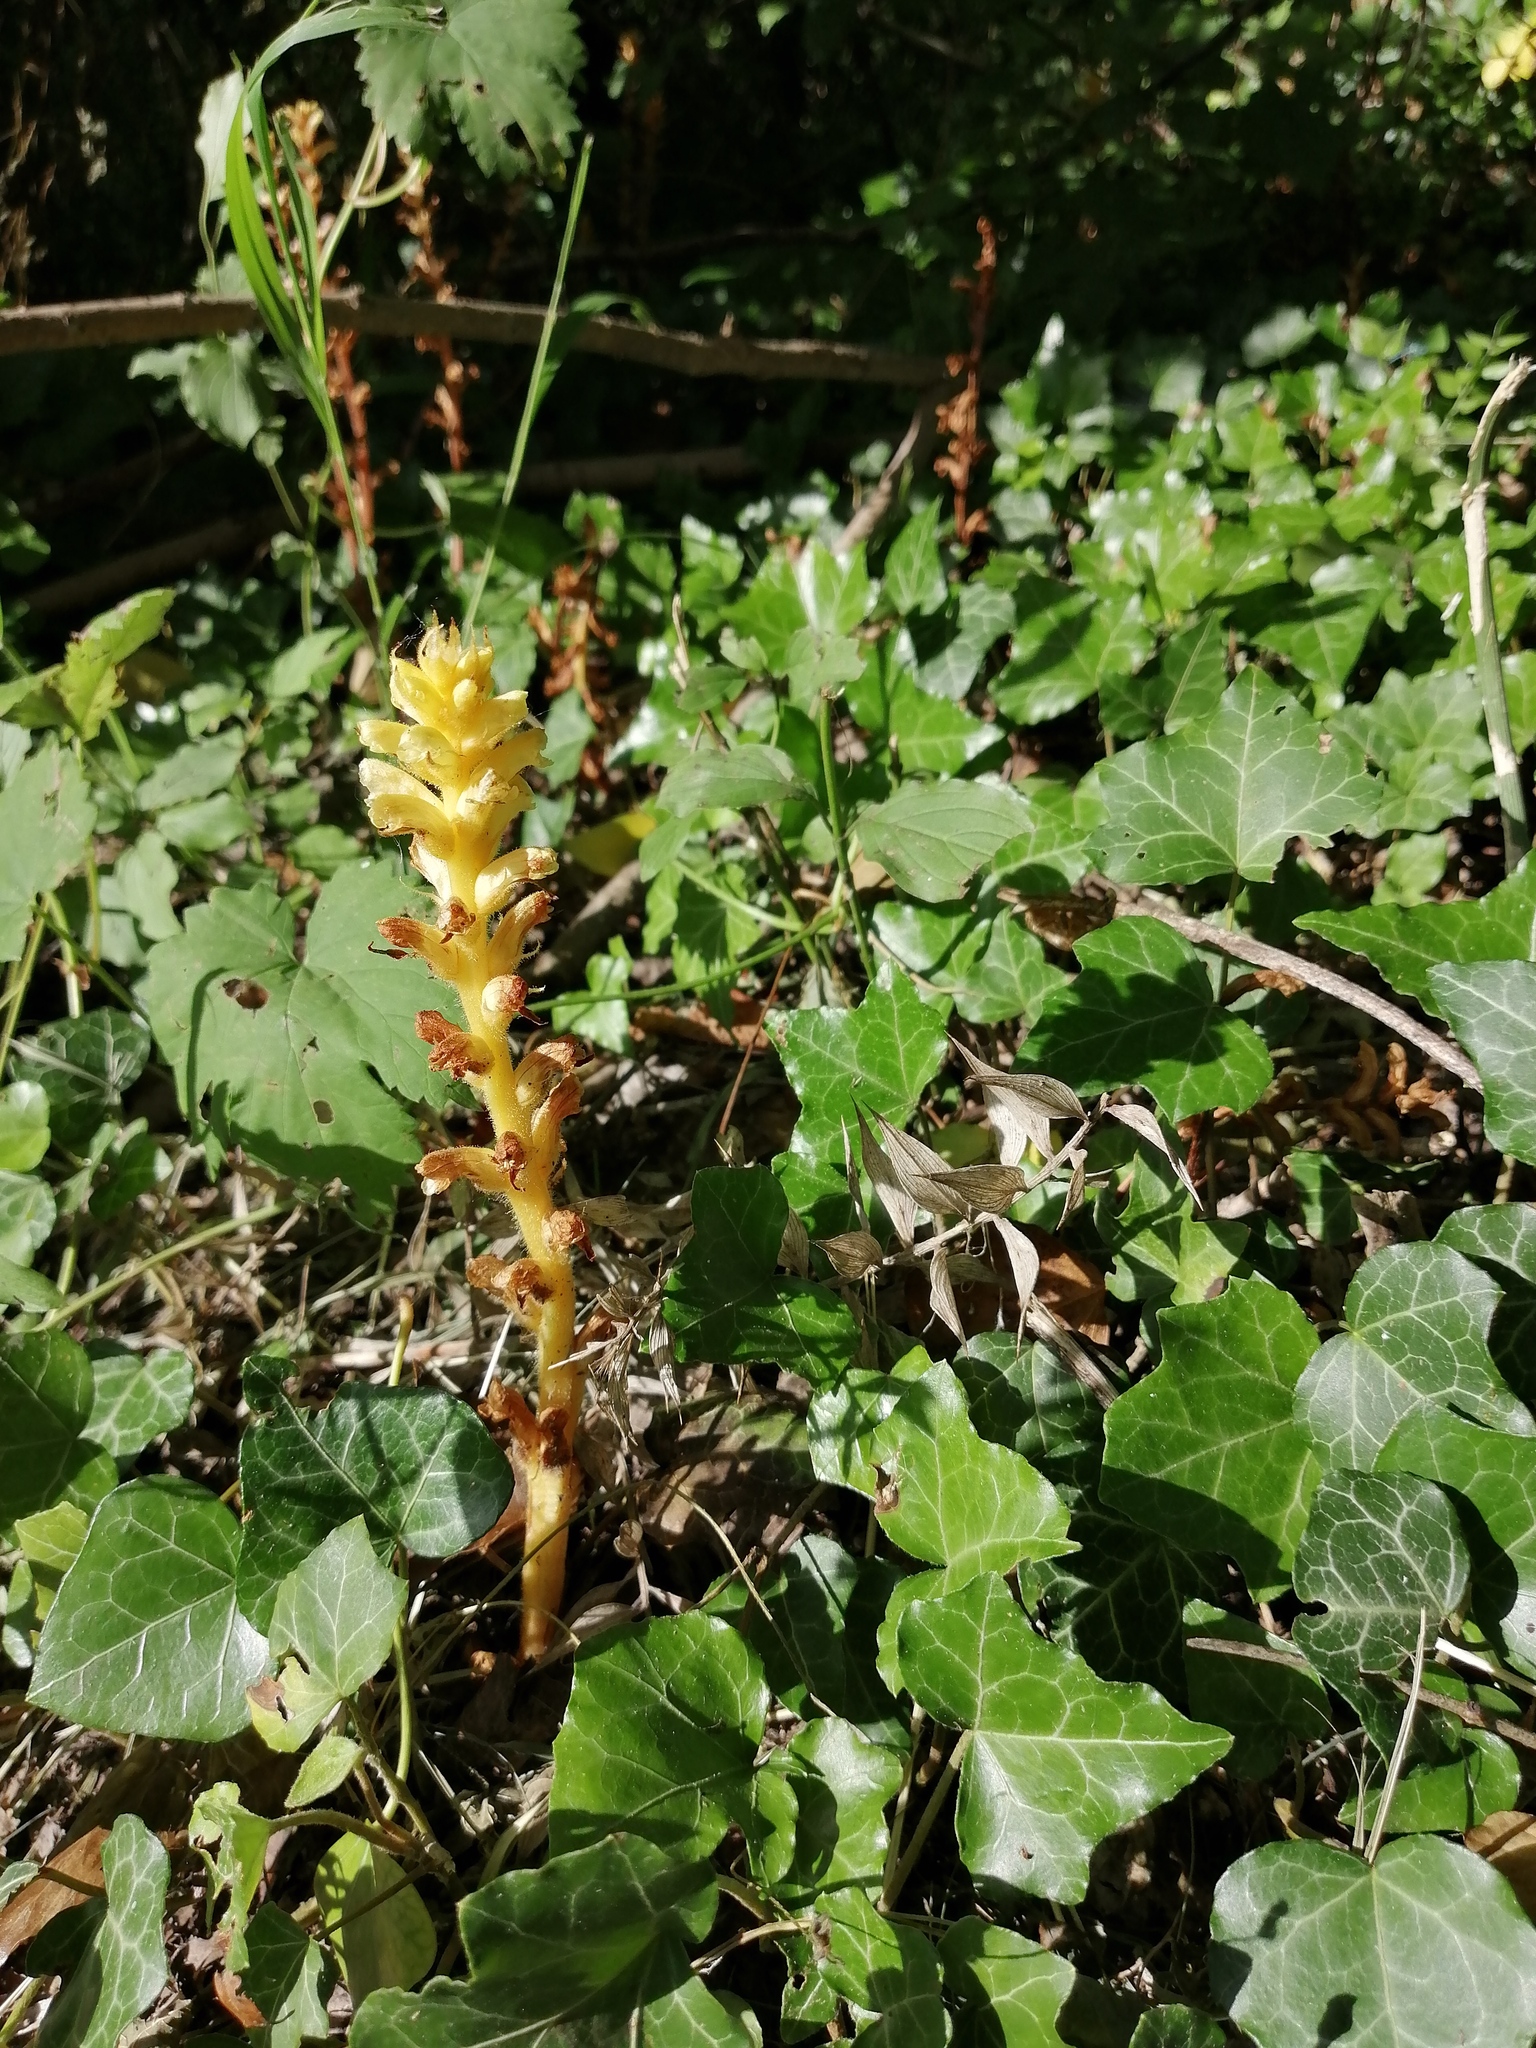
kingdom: Plantae
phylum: Tracheophyta
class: Magnoliopsida
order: Lamiales
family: Orobanchaceae
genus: Orobanche
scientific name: Orobanche hederae
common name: Ivy broomrape
